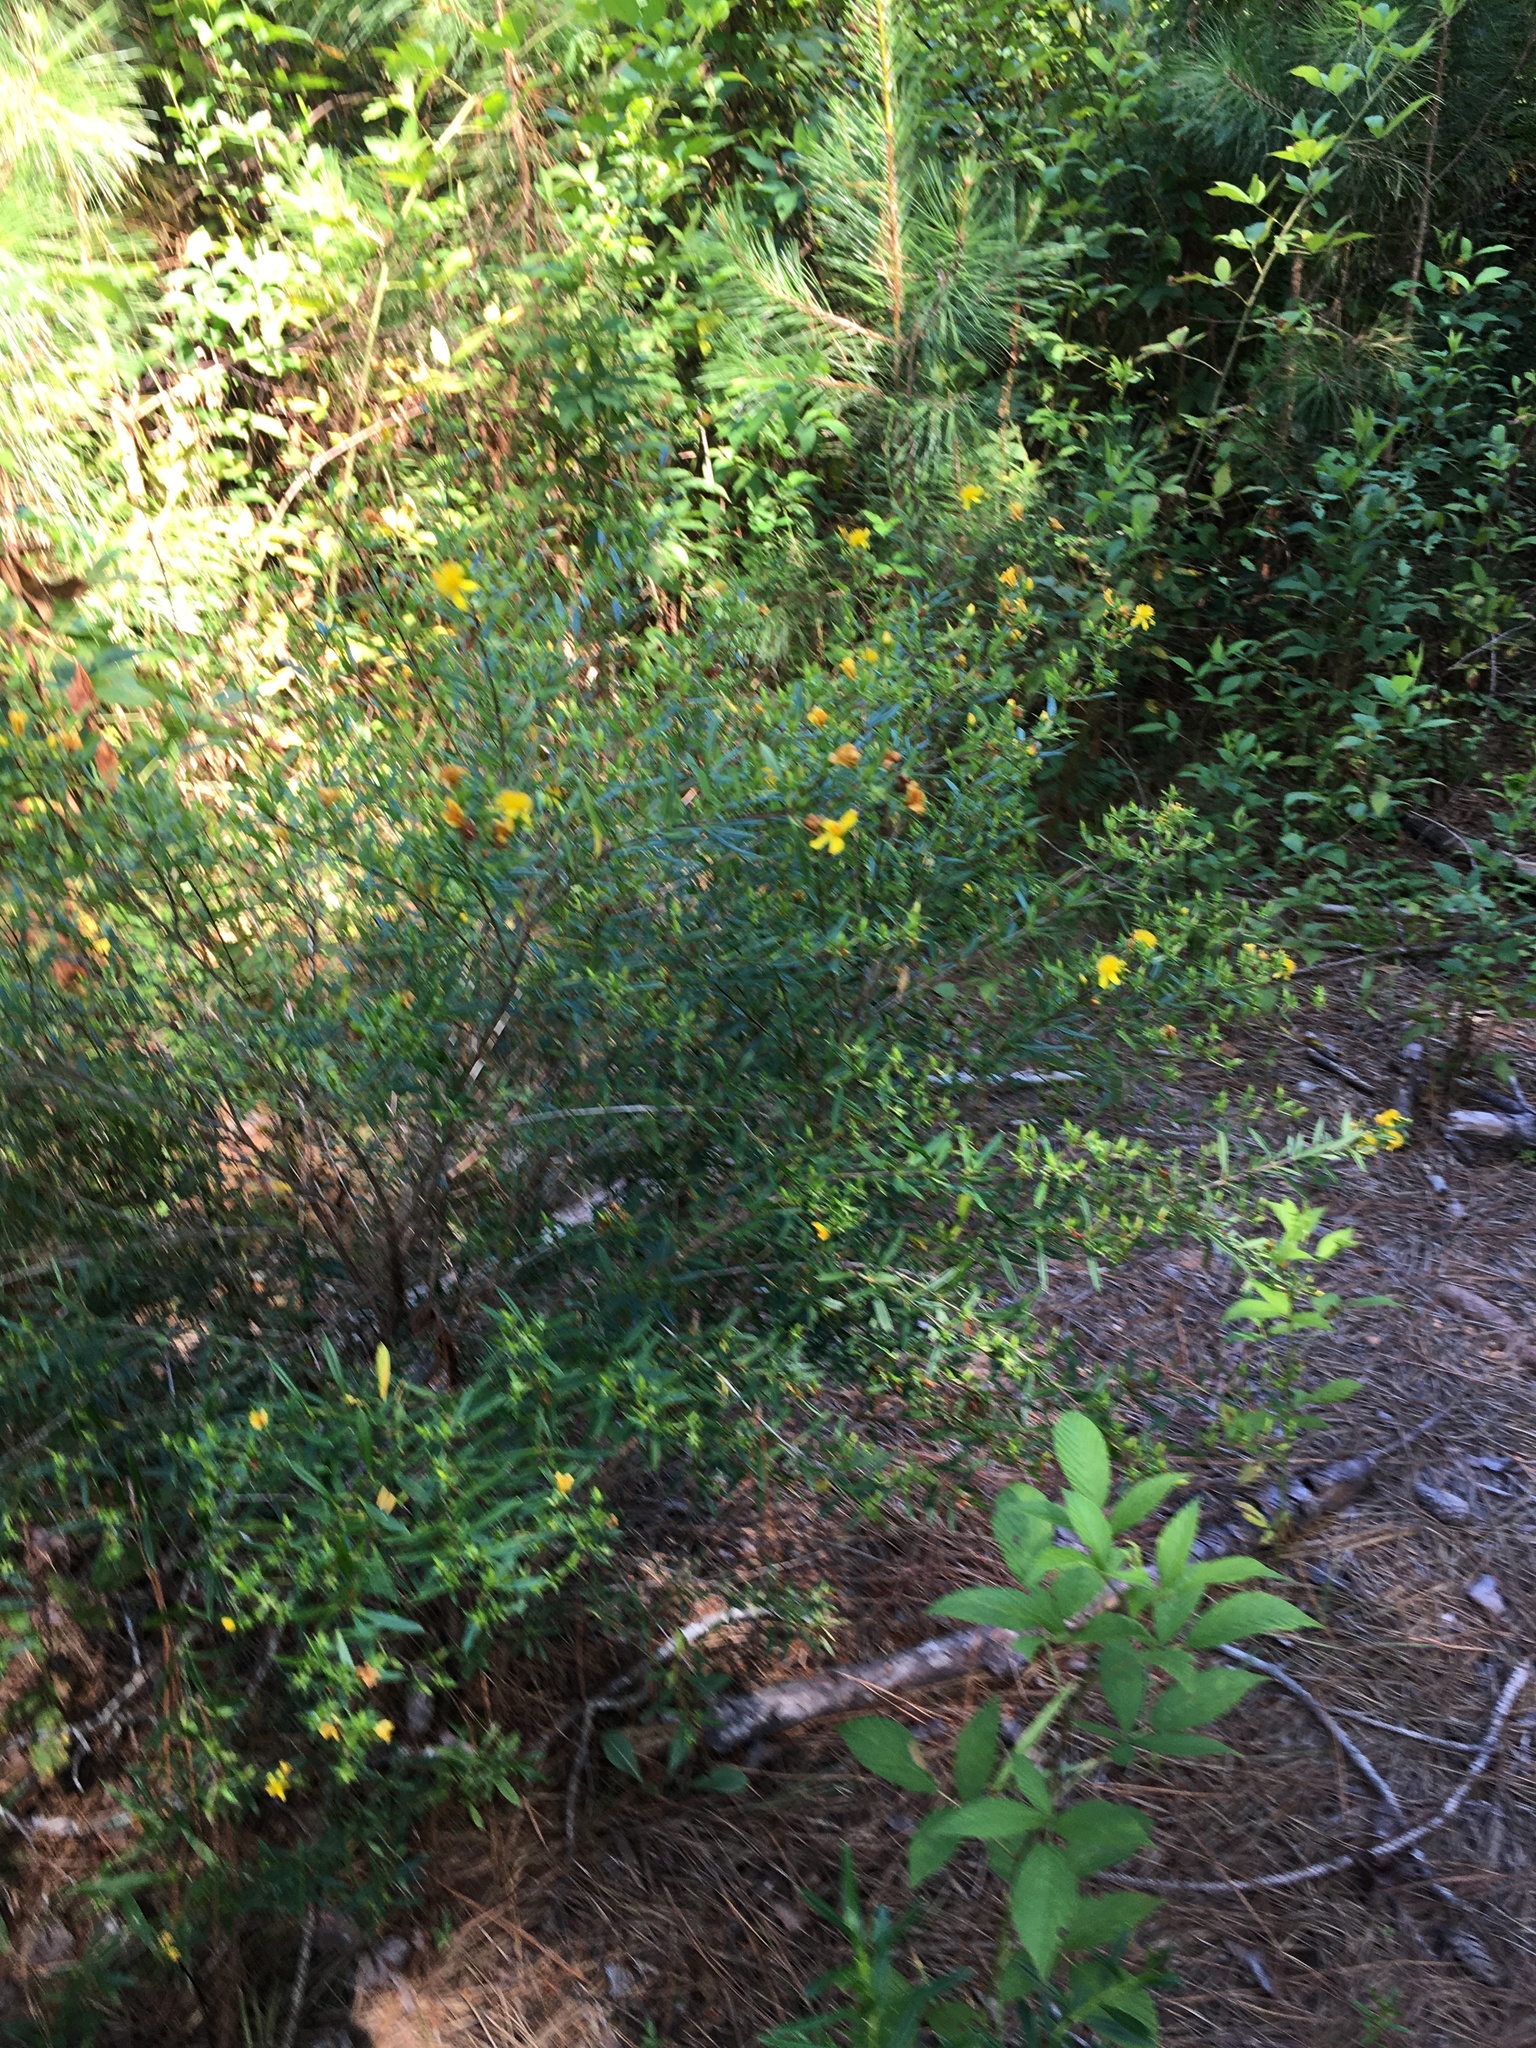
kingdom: Plantae
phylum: Tracheophyta
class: Magnoliopsida
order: Malpighiales
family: Hypericaceae
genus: Hypericum
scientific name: Hypericum prolificum
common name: Shrubby st. john's-wort
